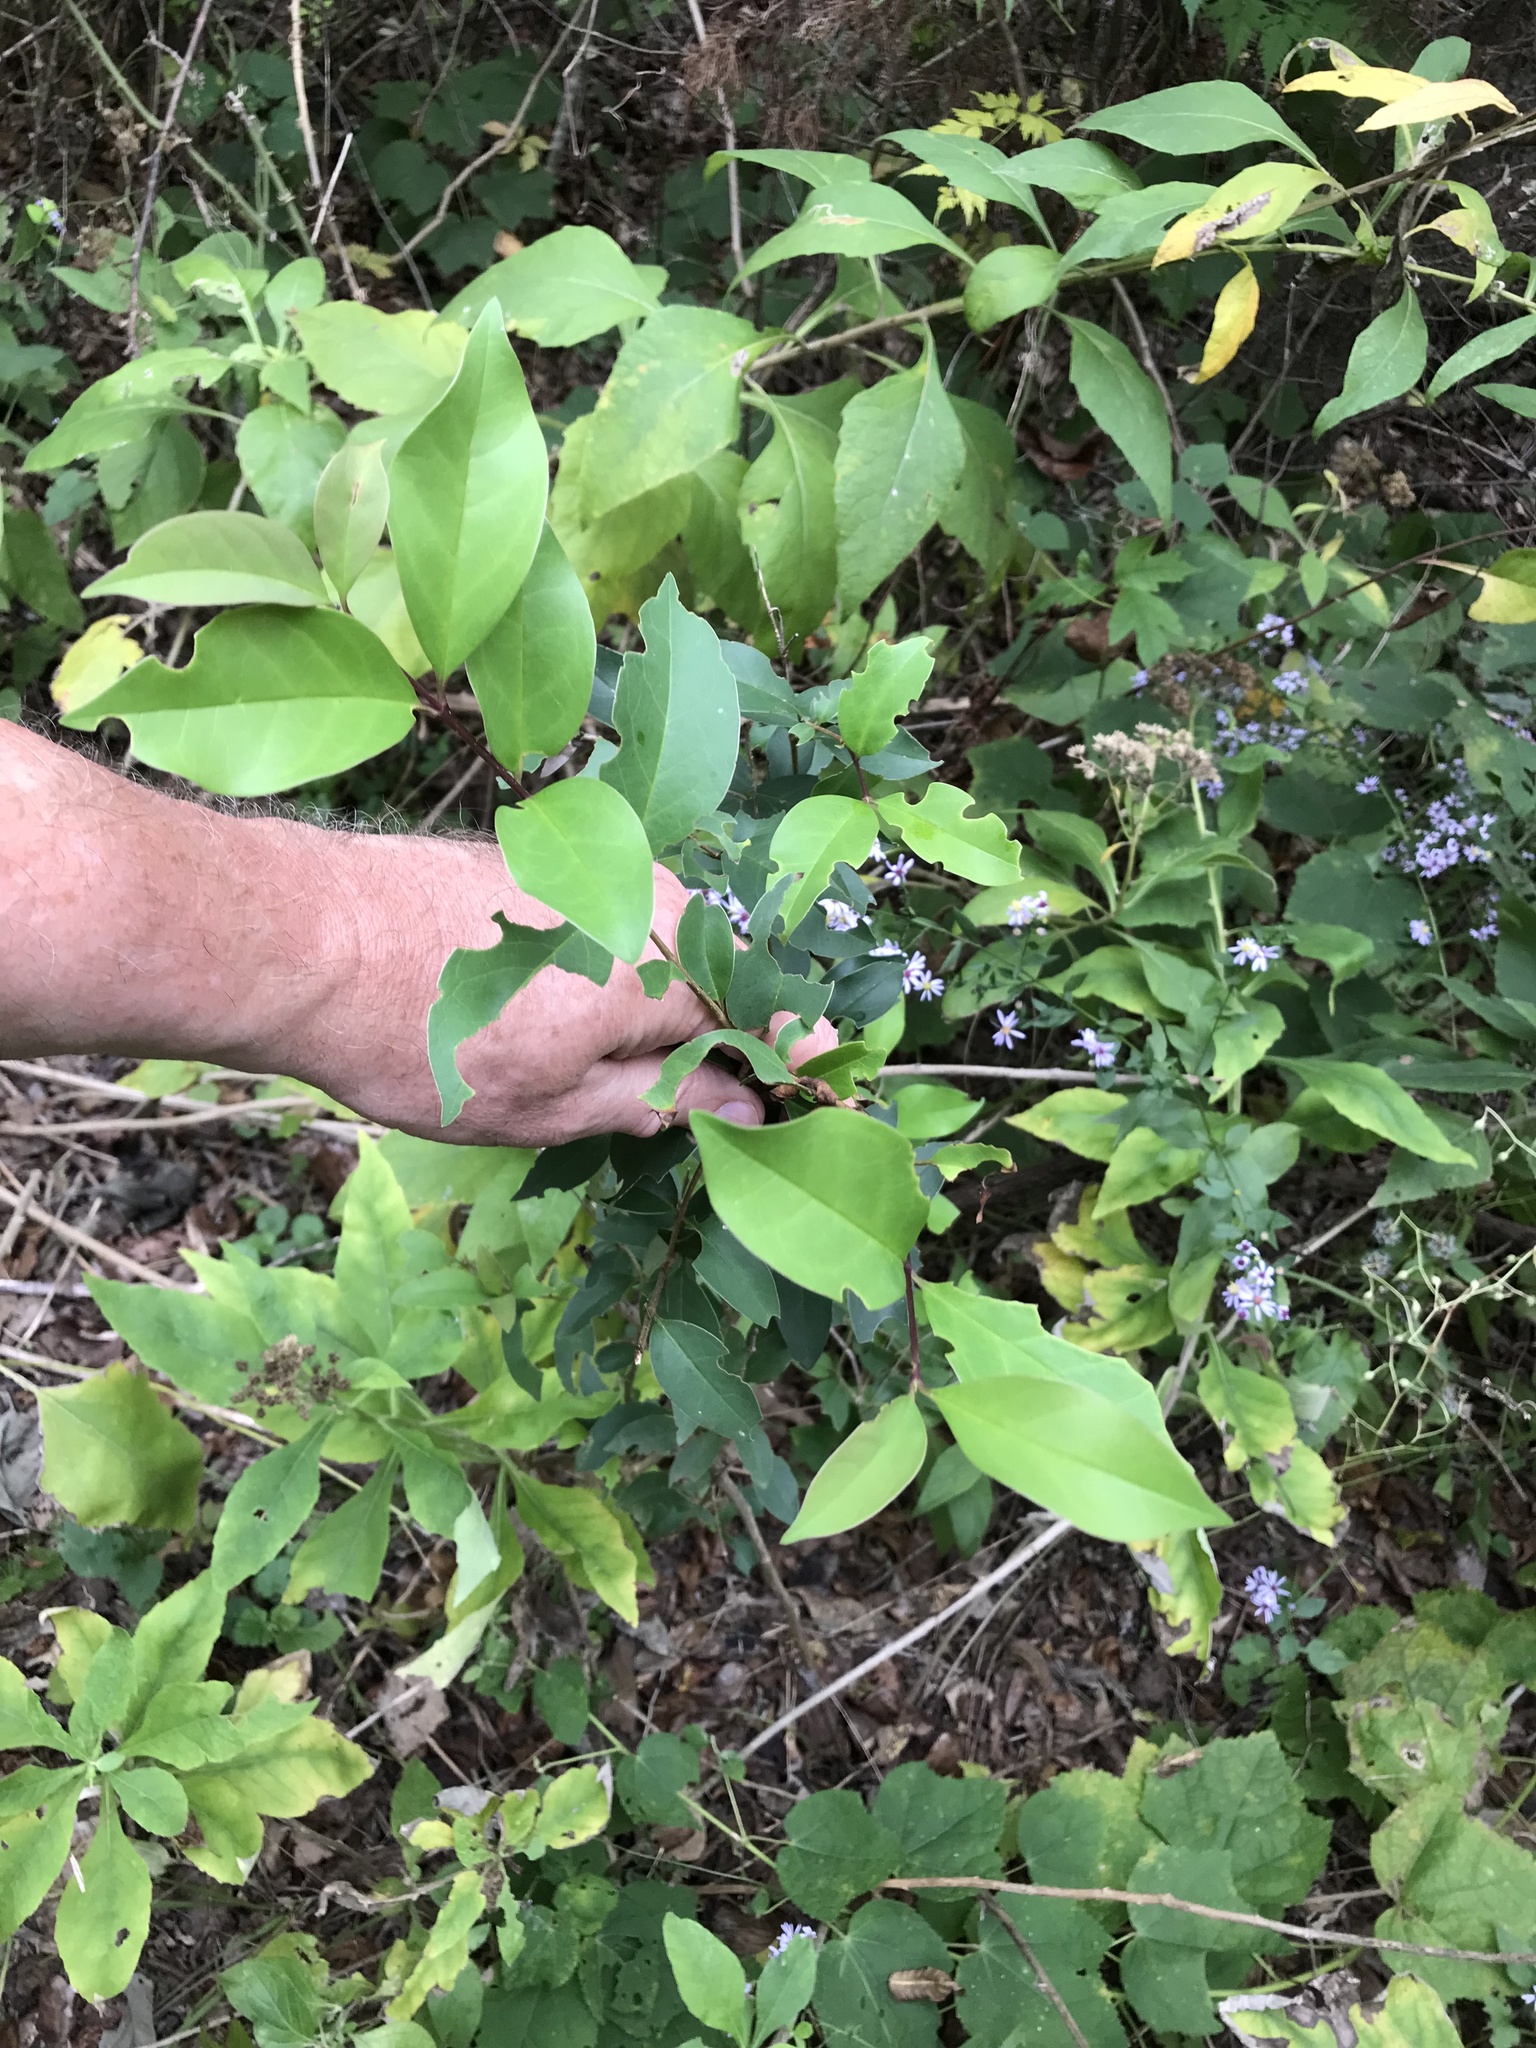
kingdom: Plantae
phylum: Tracheophyta
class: Magnoliopsida
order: Lamiales
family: Oleaceae
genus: Ligustrum
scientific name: Ligustrum lucidum
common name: Glossy privet
